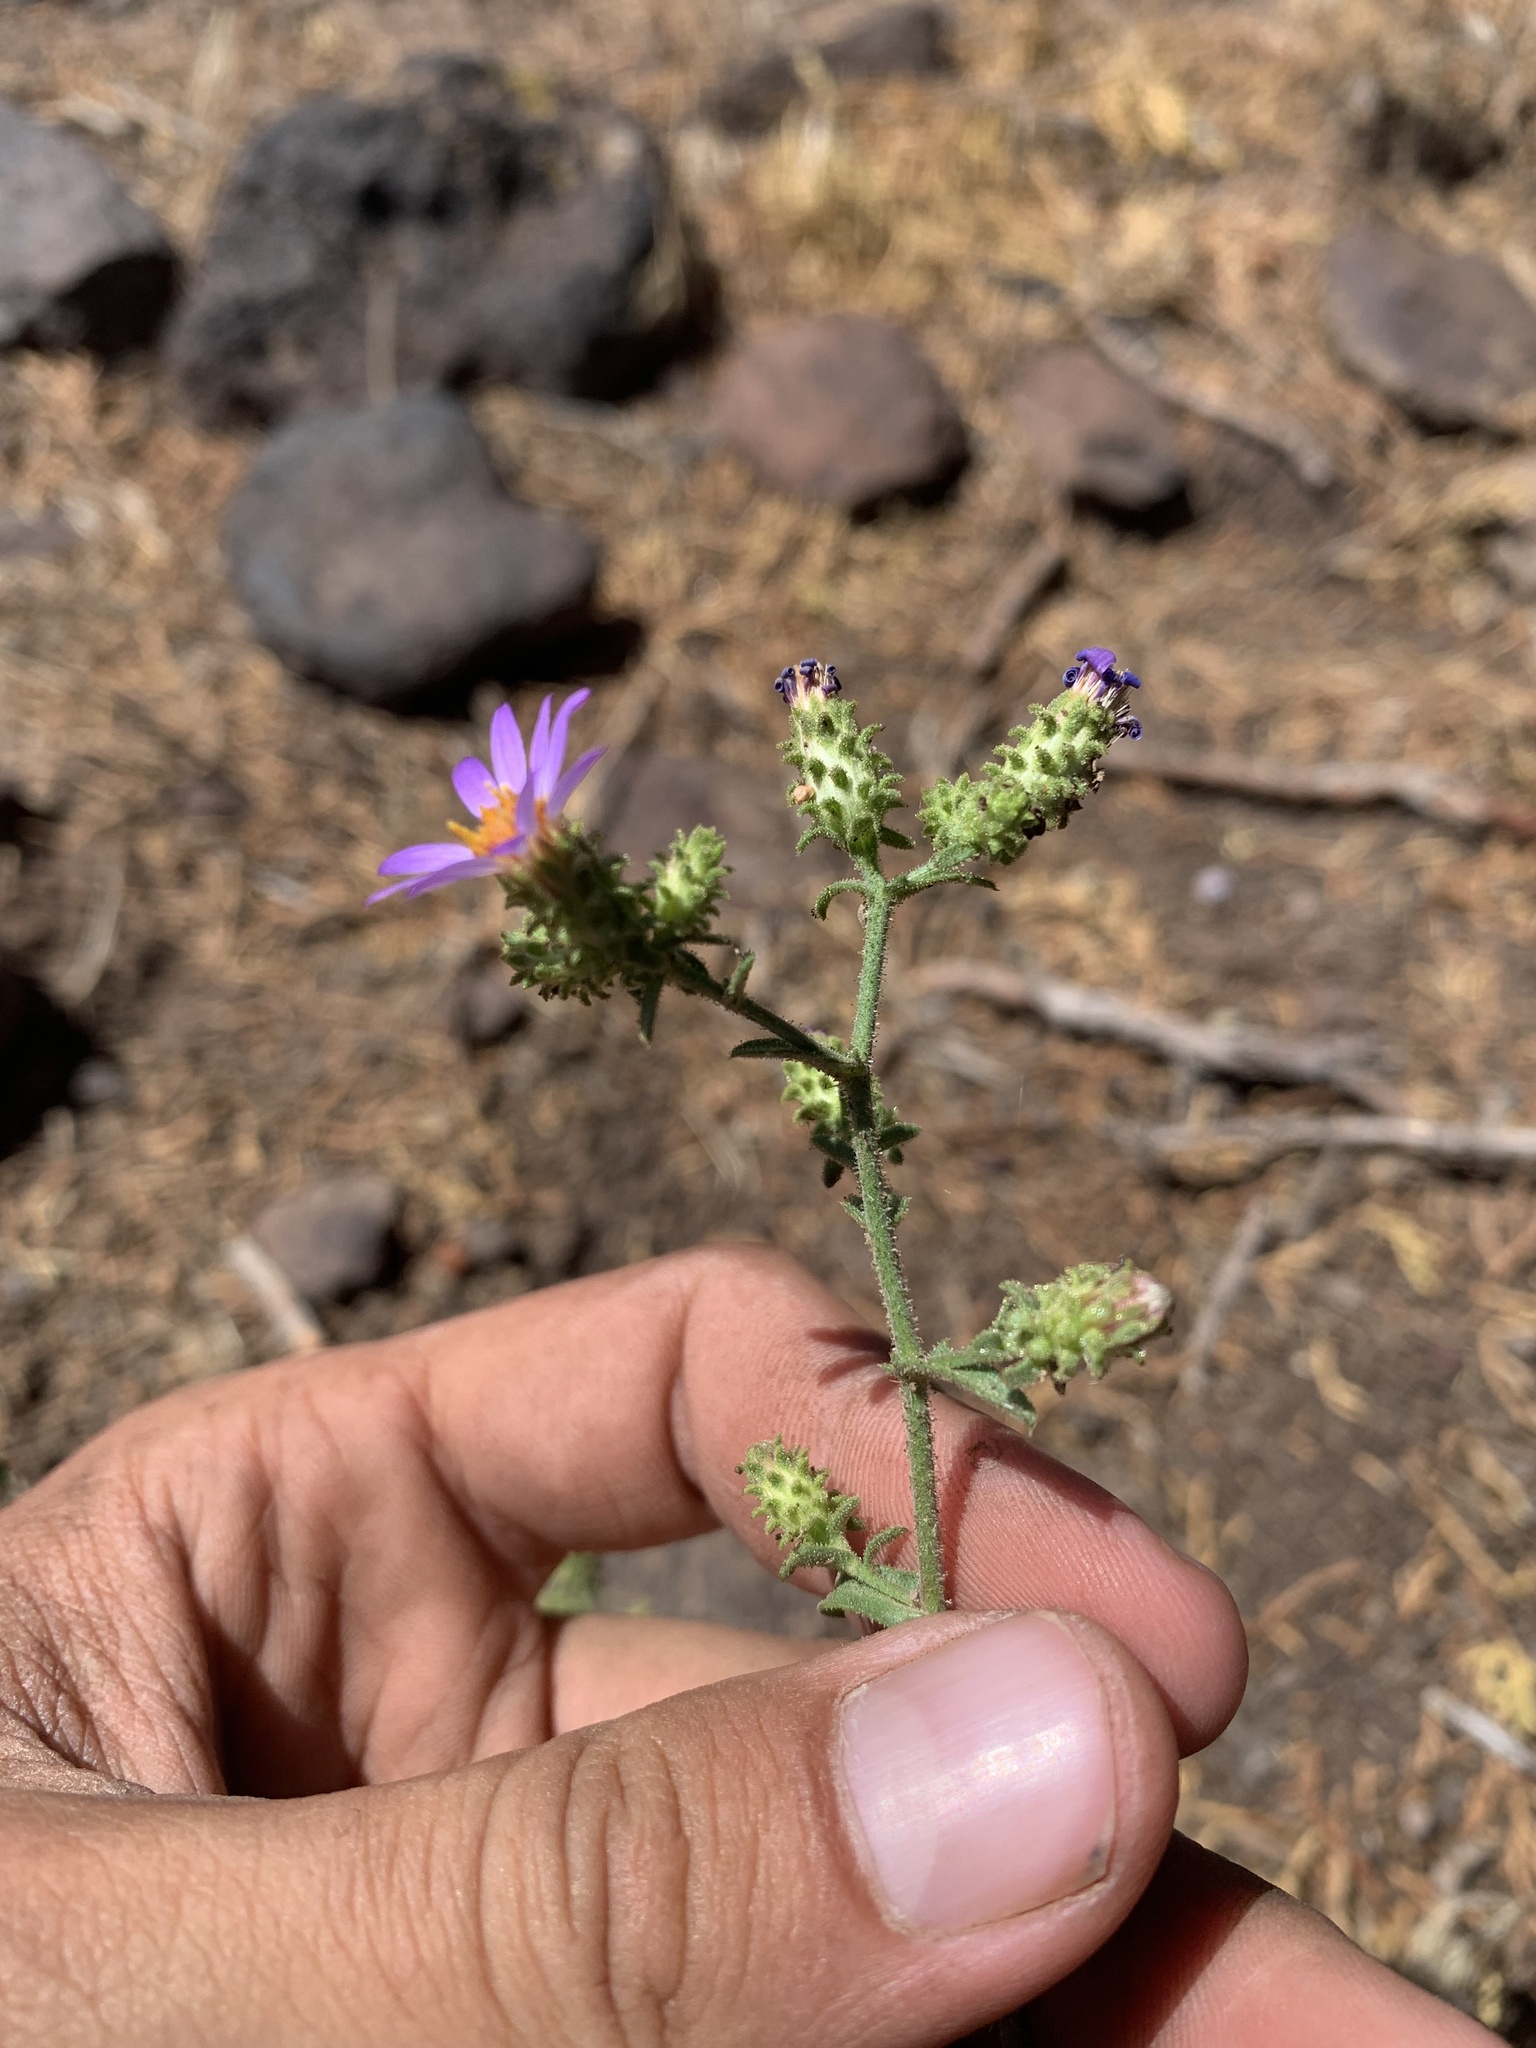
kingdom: Plantae
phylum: Tracheophyta
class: Magnoliopsida
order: Asterales
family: Asteraceae
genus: Dieteria
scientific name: Dieteria canescens
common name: Hoary-aster
